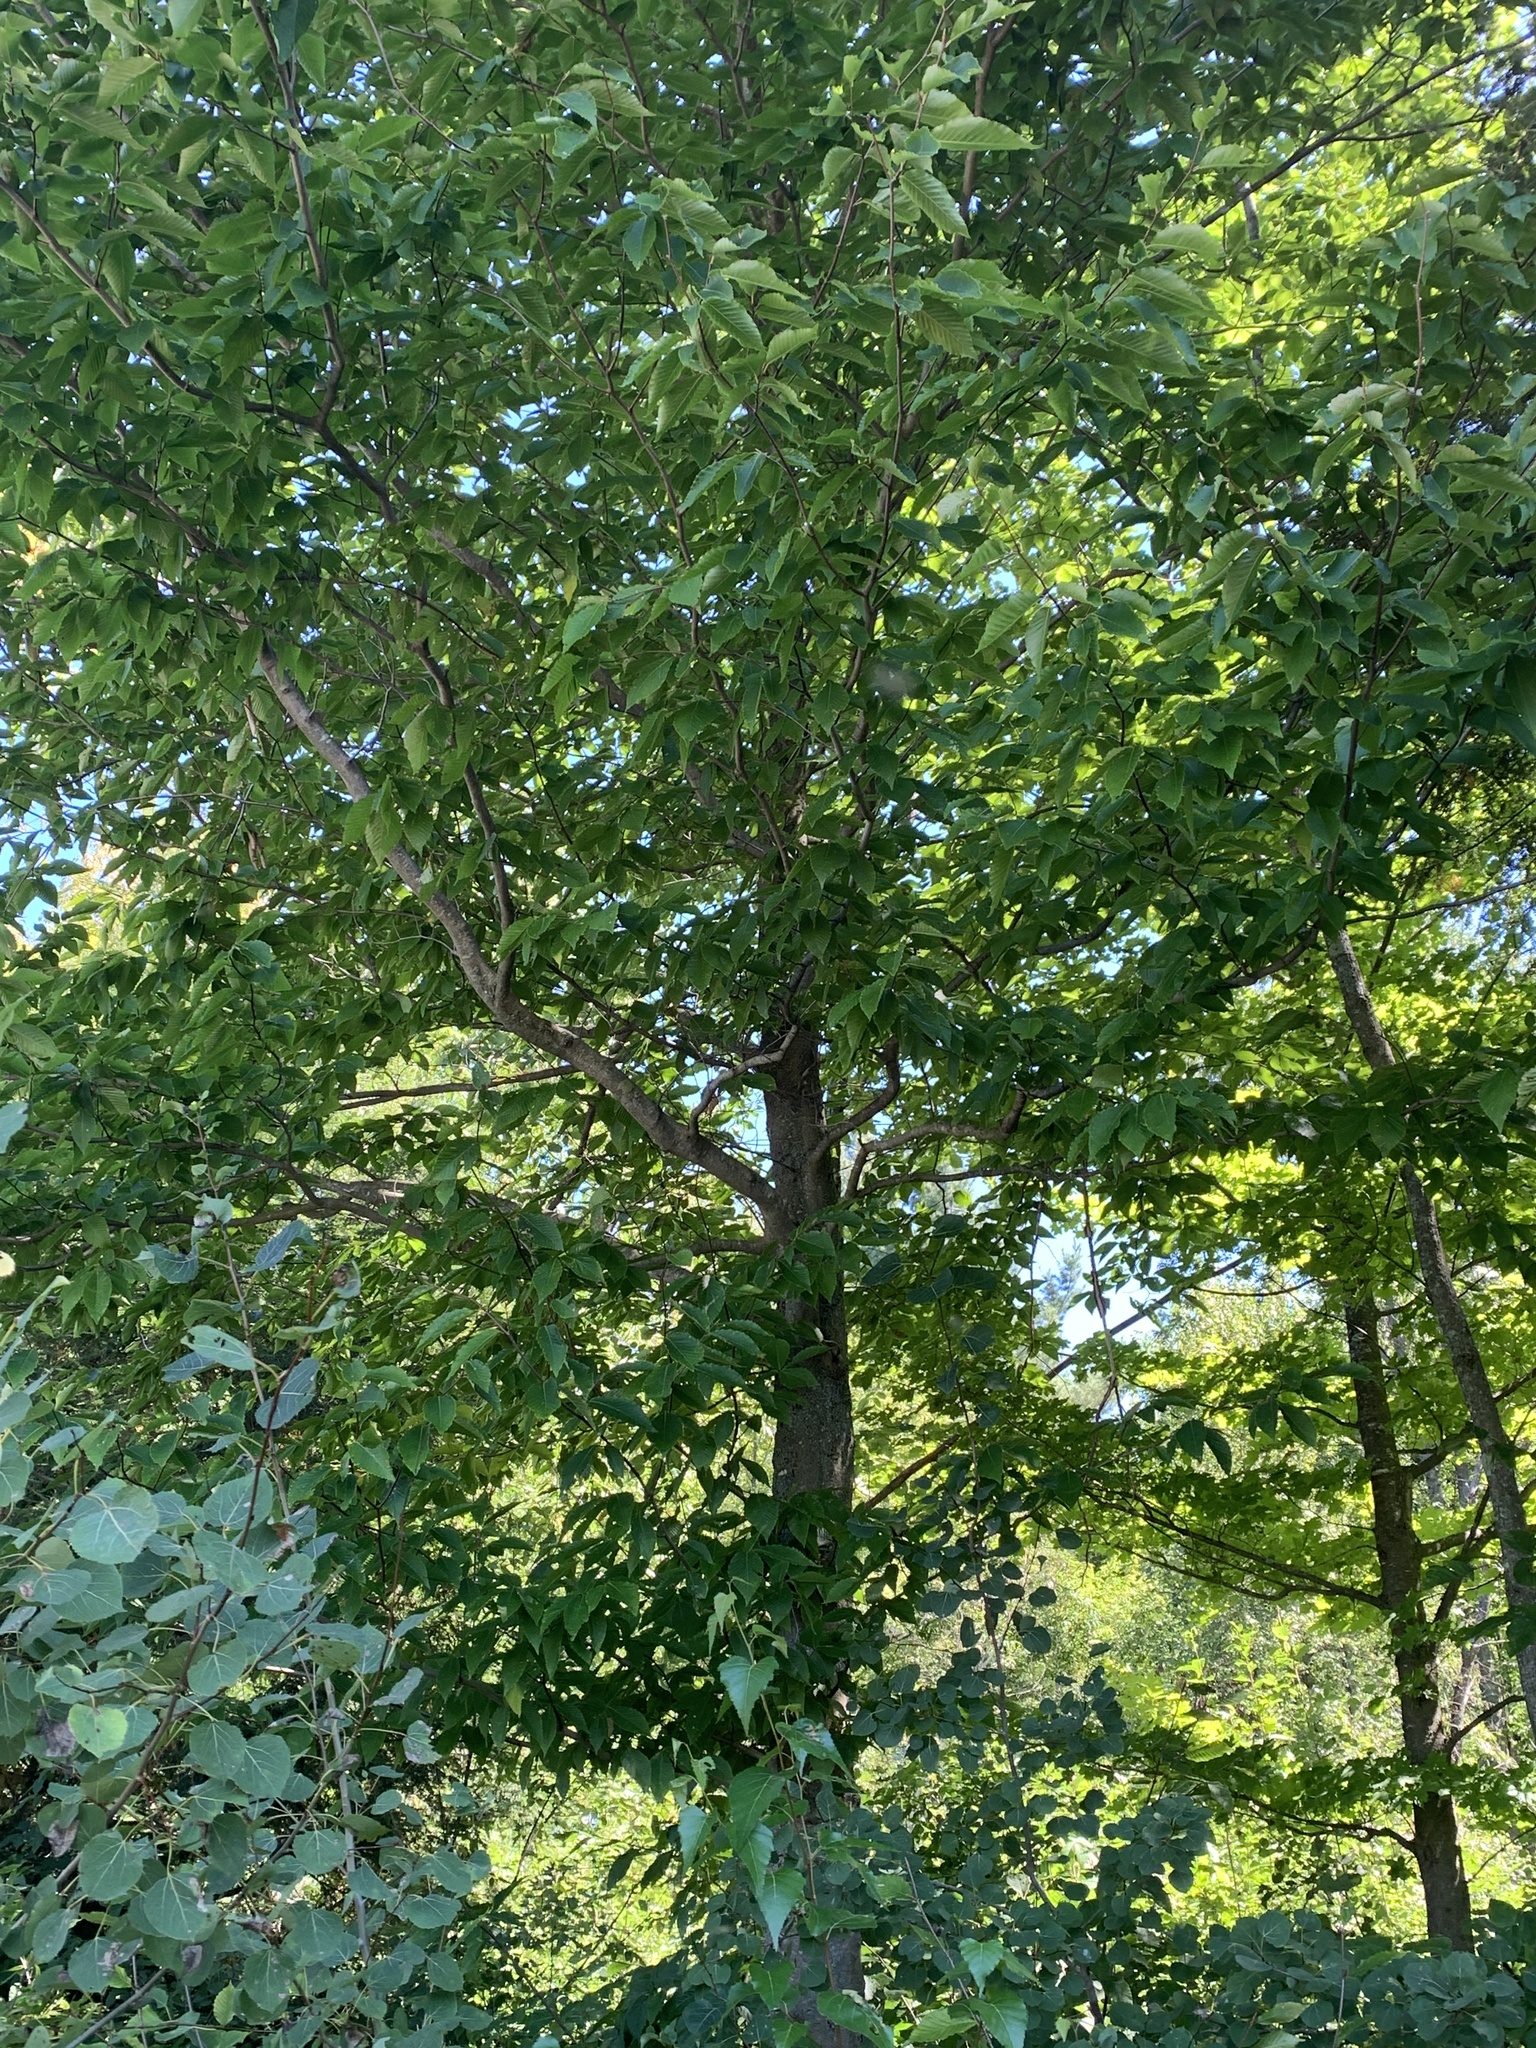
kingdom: Plantae
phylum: Tracheophyta
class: Magnoliopsida
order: Fagales
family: Fagaceae
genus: Fagus
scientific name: Fagus grandifolia
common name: American beech
